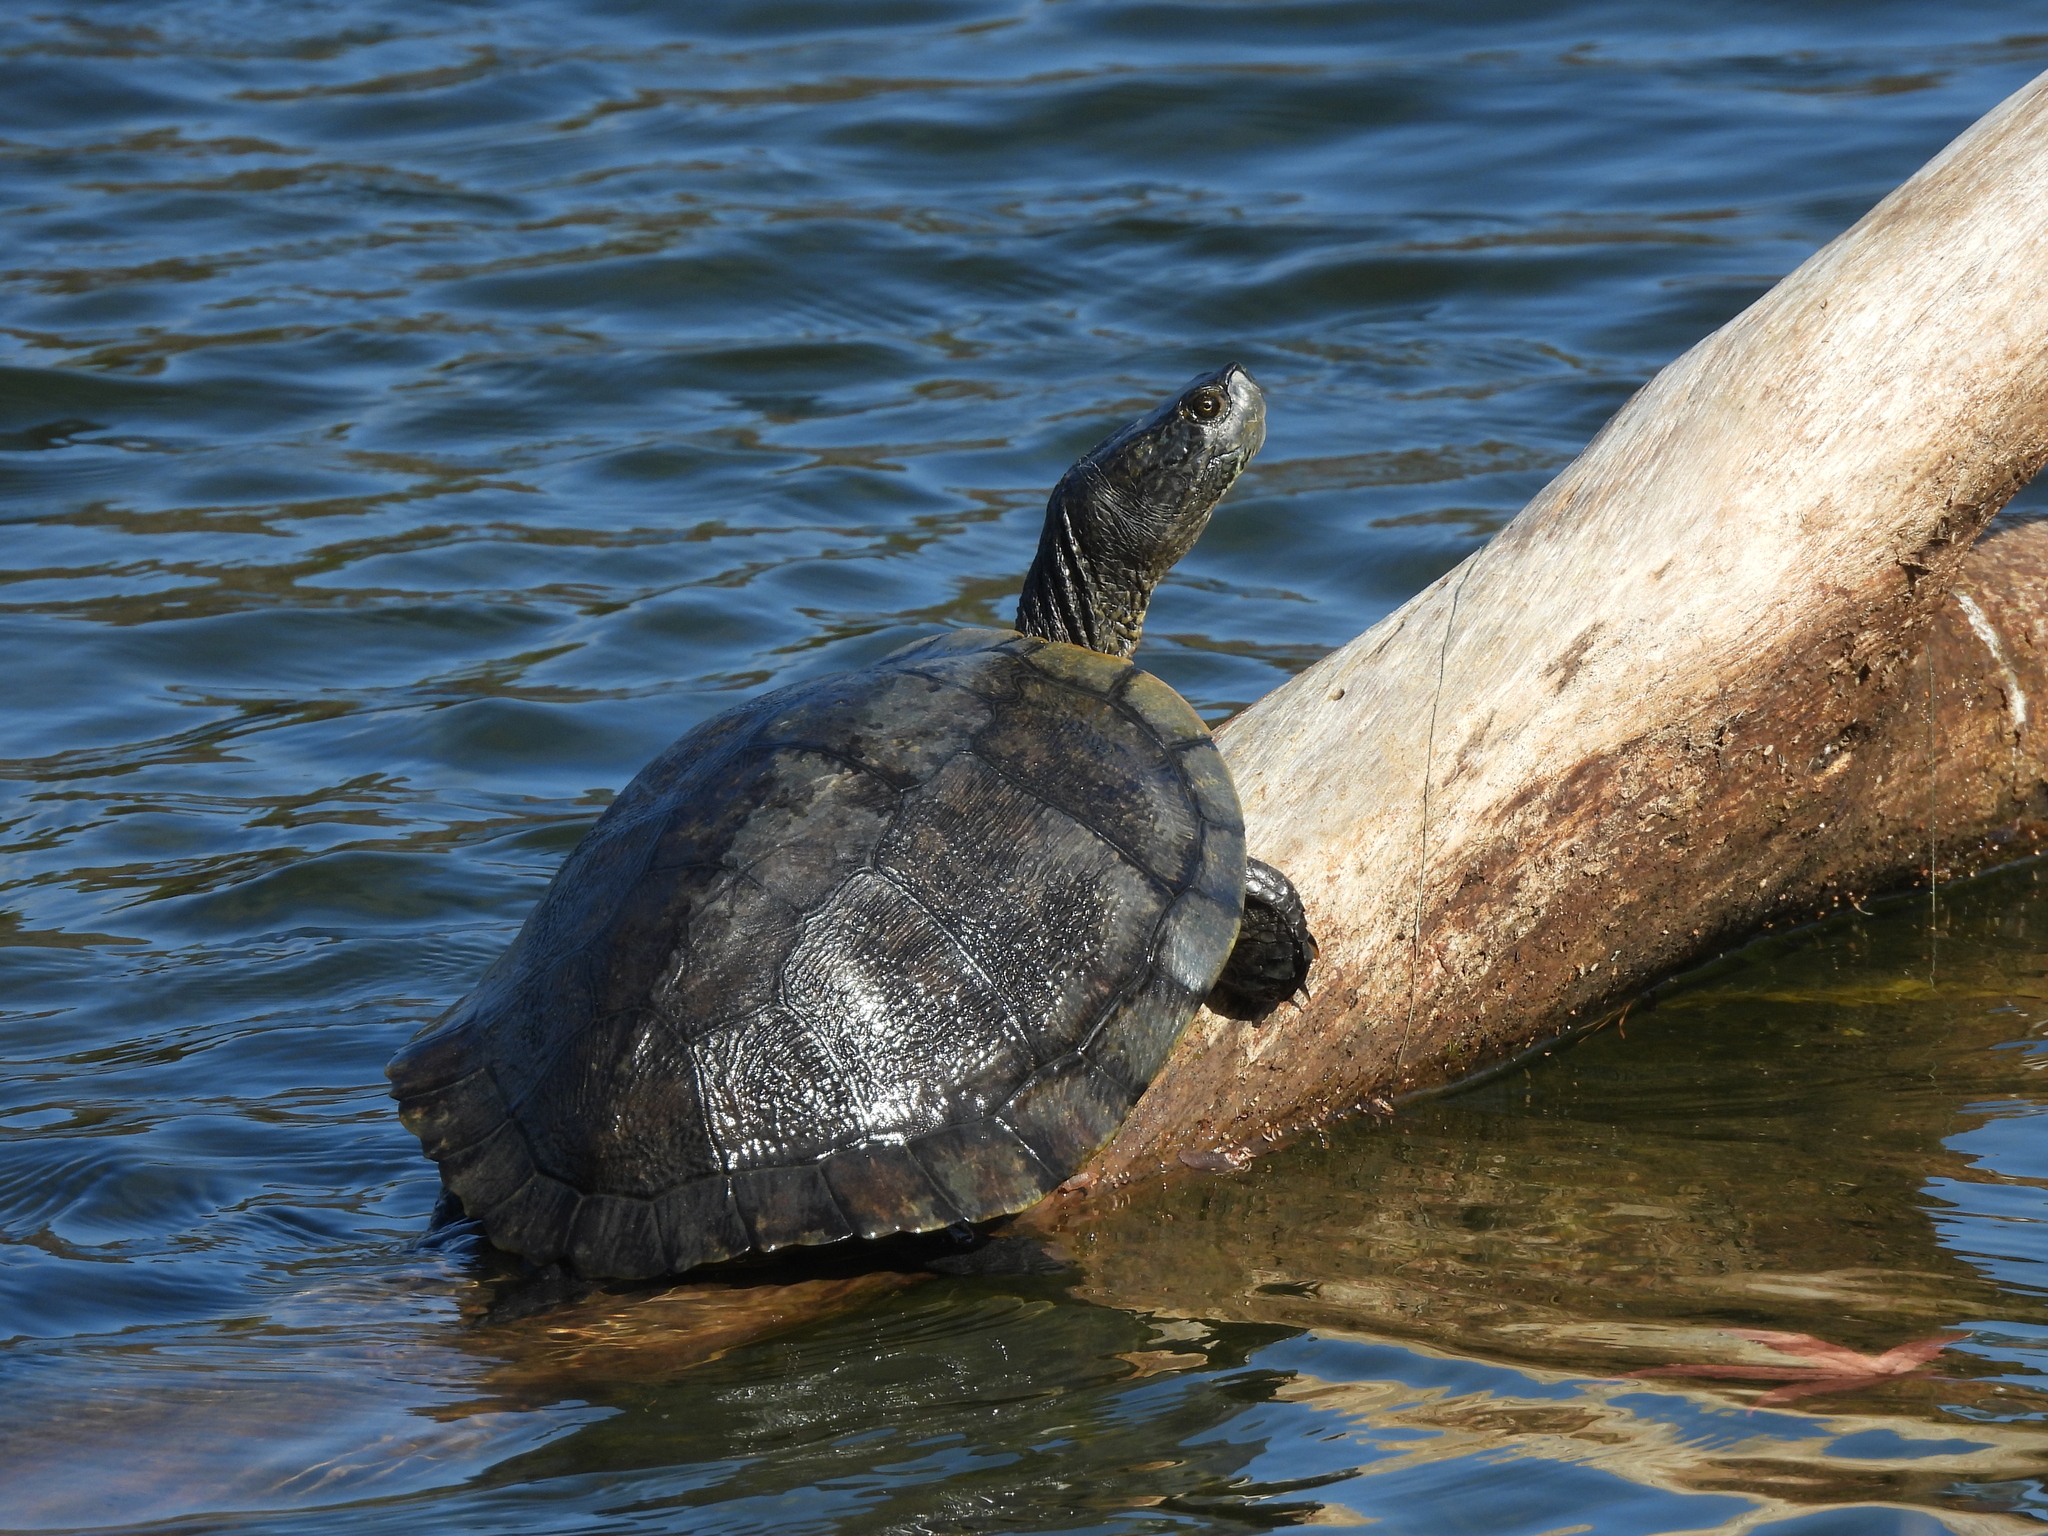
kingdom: Animalia
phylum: Chordata
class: Testudines
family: Emydidae
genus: Trachemys
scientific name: Trachemys scripta
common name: Slider
